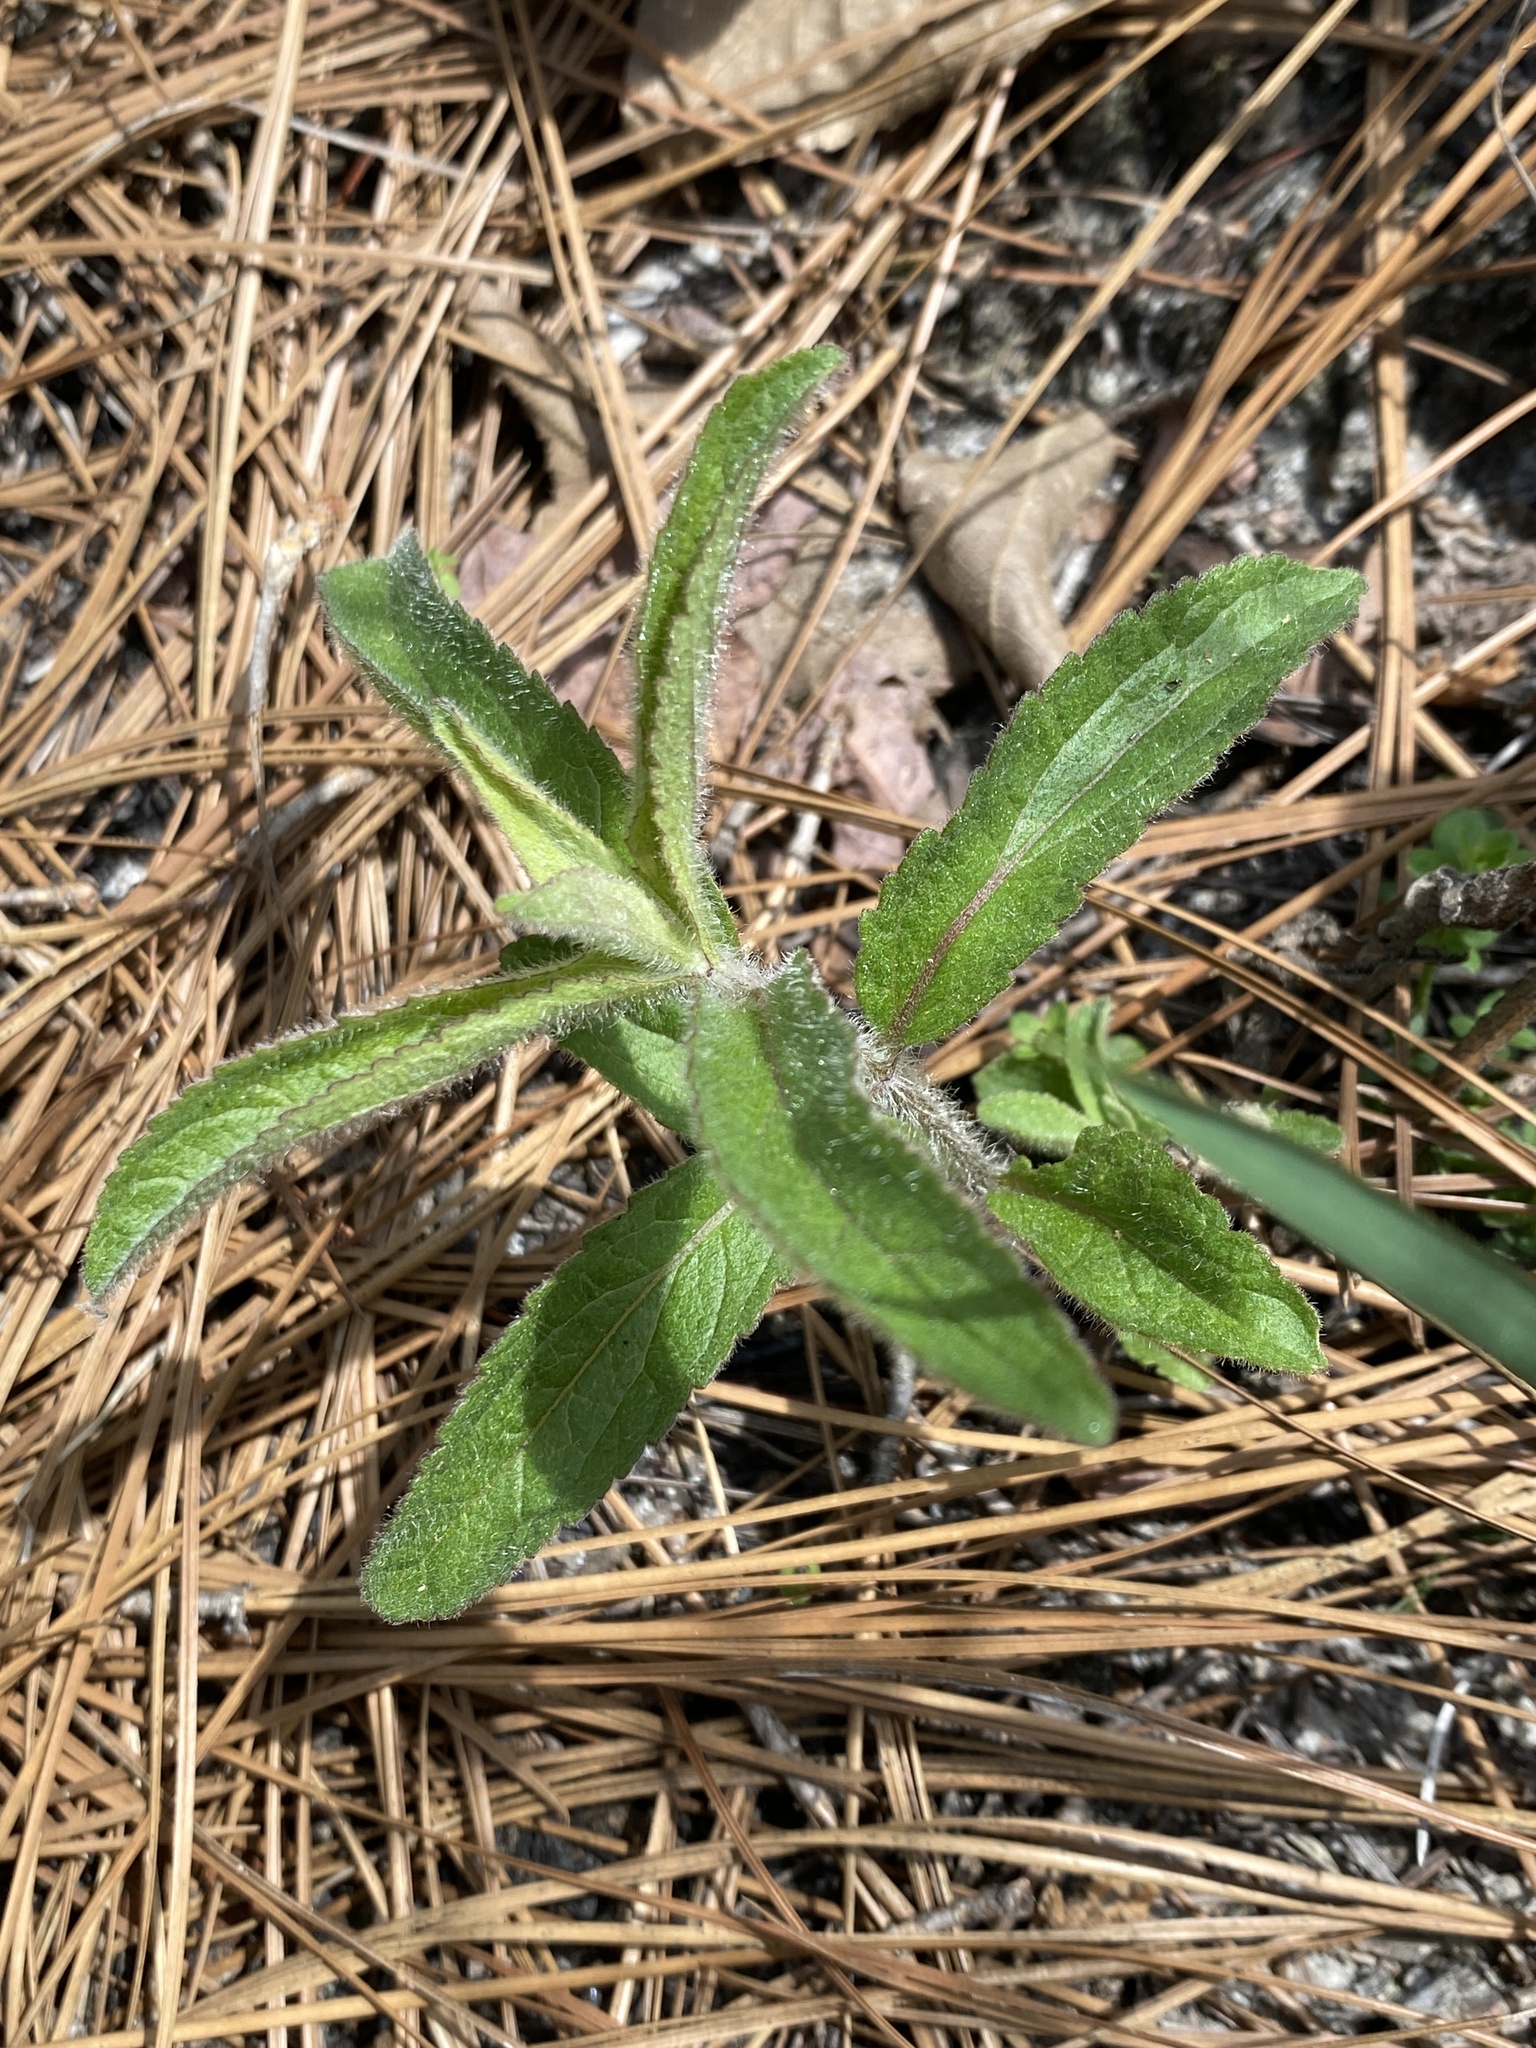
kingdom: Plantae
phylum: Tracheophyta
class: Magnoliopsida
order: Asterales
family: Asteraceae
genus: Eupatorium
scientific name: Eupatorium album
